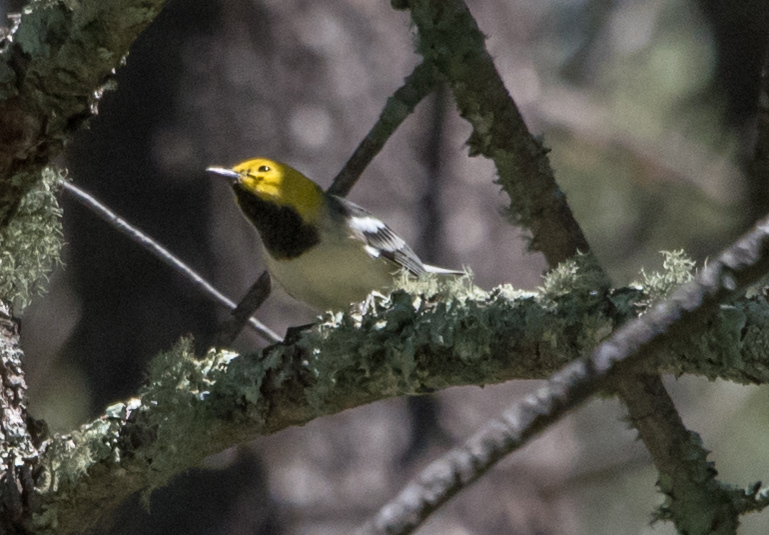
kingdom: Animalia
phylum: Chordata
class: Aves
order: Passeriformes
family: Parulidae
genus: Setophaga
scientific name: Setophaga occidentalis
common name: Hermit warbler
